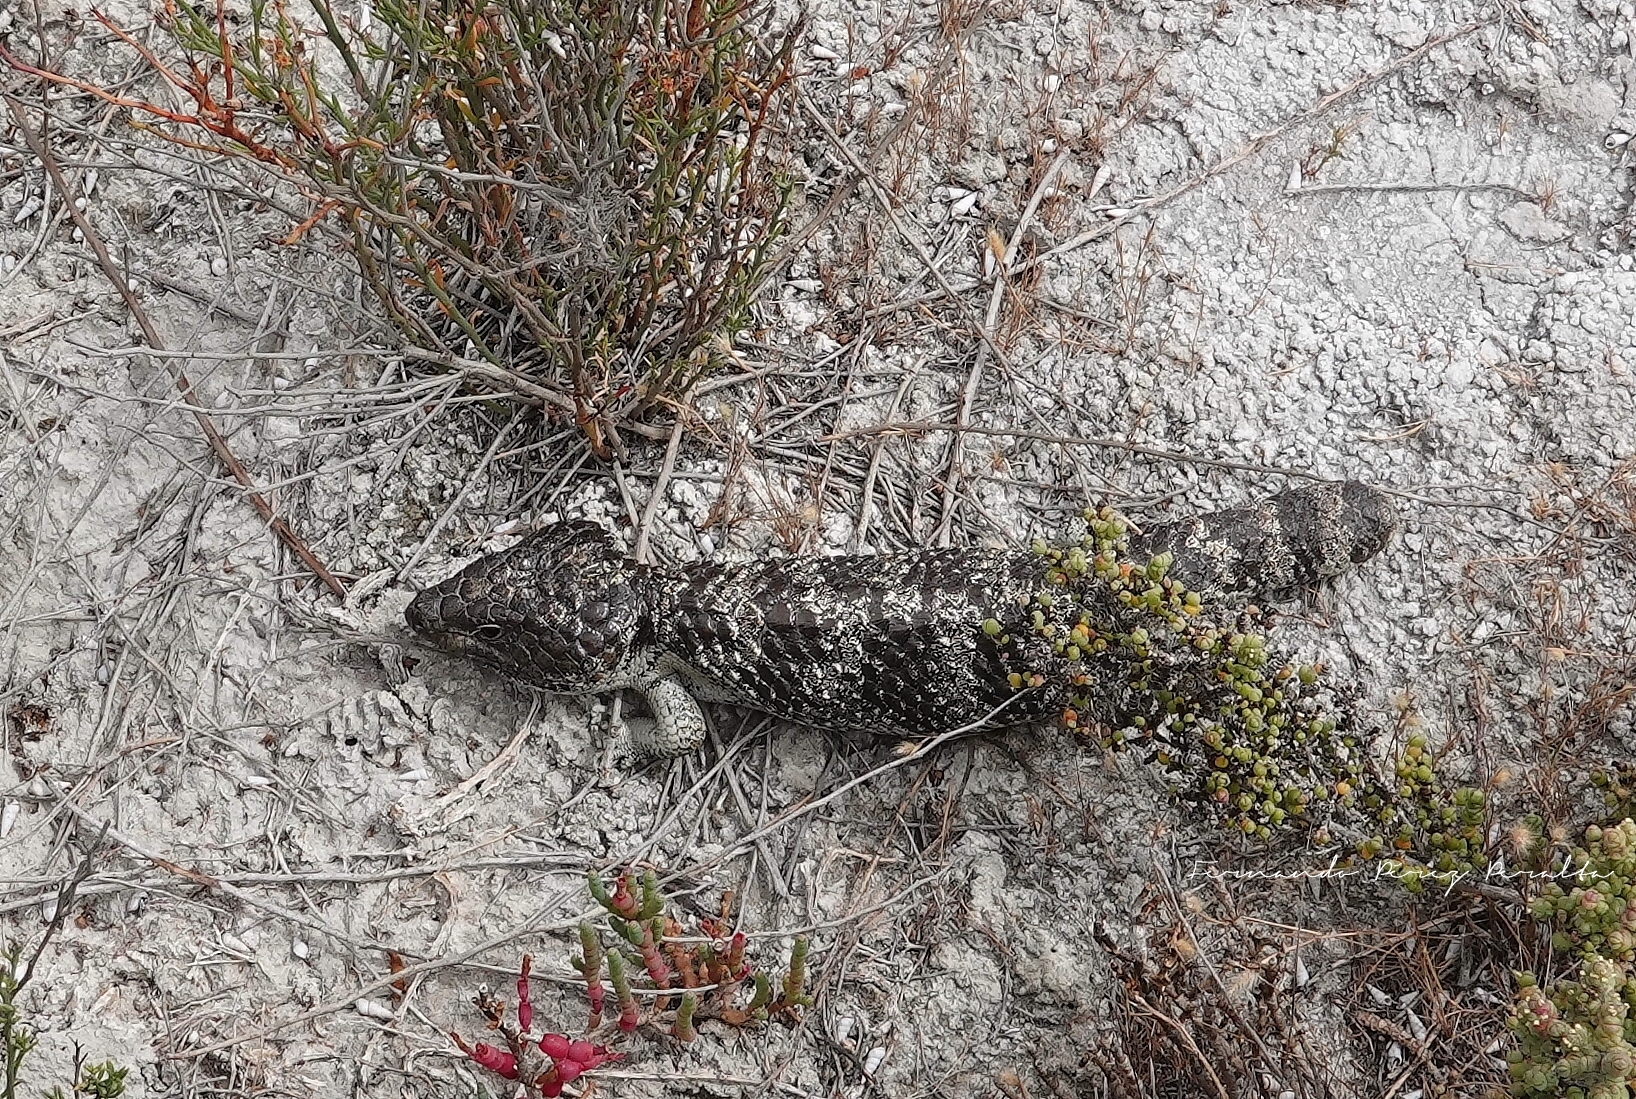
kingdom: Animalia
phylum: Chordata
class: Squamata
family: Scincidae
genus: Tiliqua
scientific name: Tiliqua rugosa
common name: Pinecone lizard
